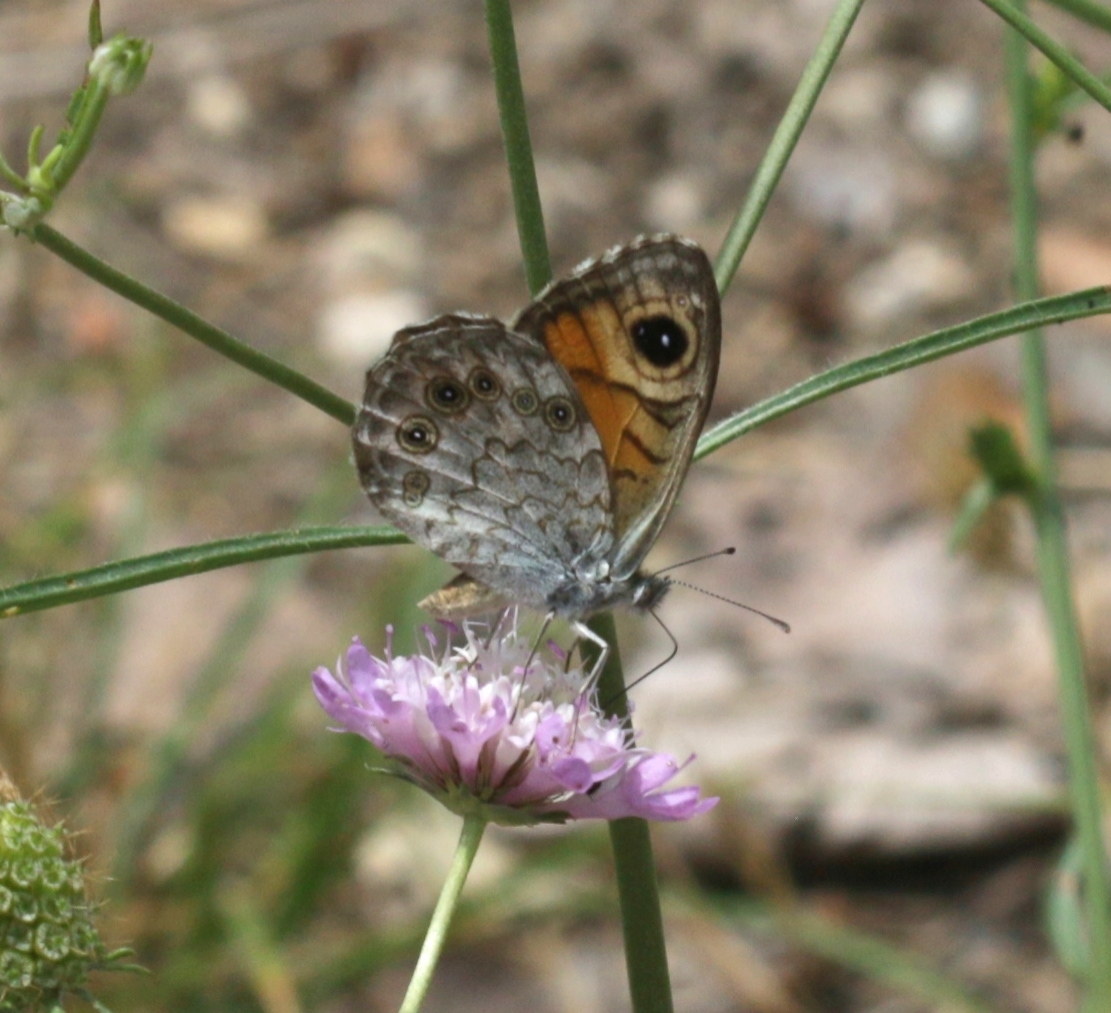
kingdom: Animalia
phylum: Arthropoda
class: Insecta
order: Lepidoptera
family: Nymphalidae
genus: Pararge
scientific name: Pararge Lasiommata maera
